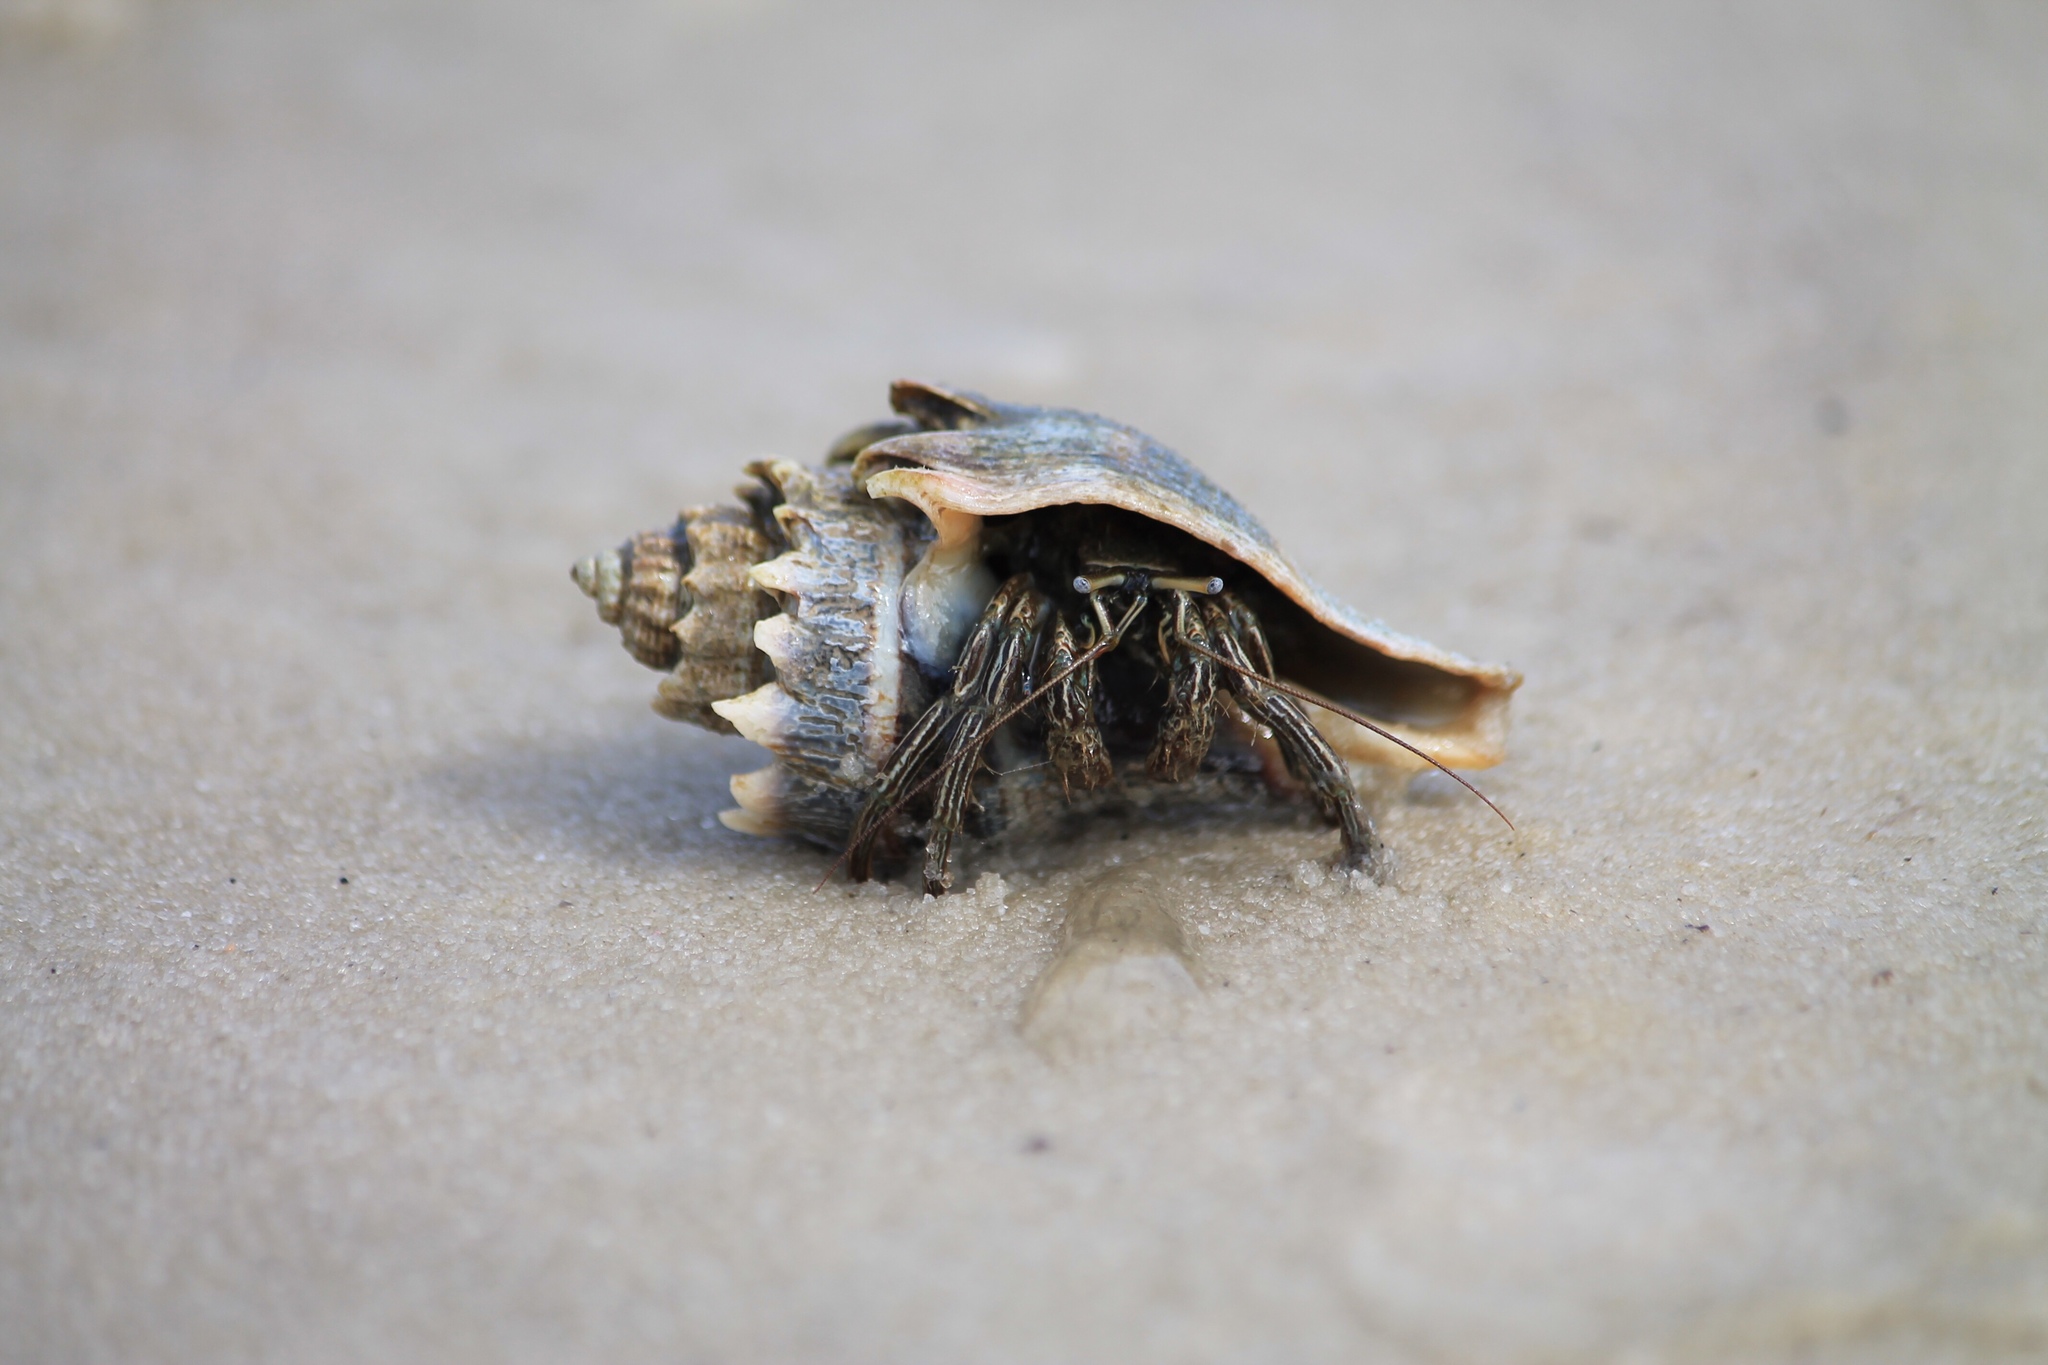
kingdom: Animalia
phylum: Arthropoda
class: Malacostraca
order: Decapoda
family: Diogenidae
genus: Clibanarius
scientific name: Clibanarius vittatus
